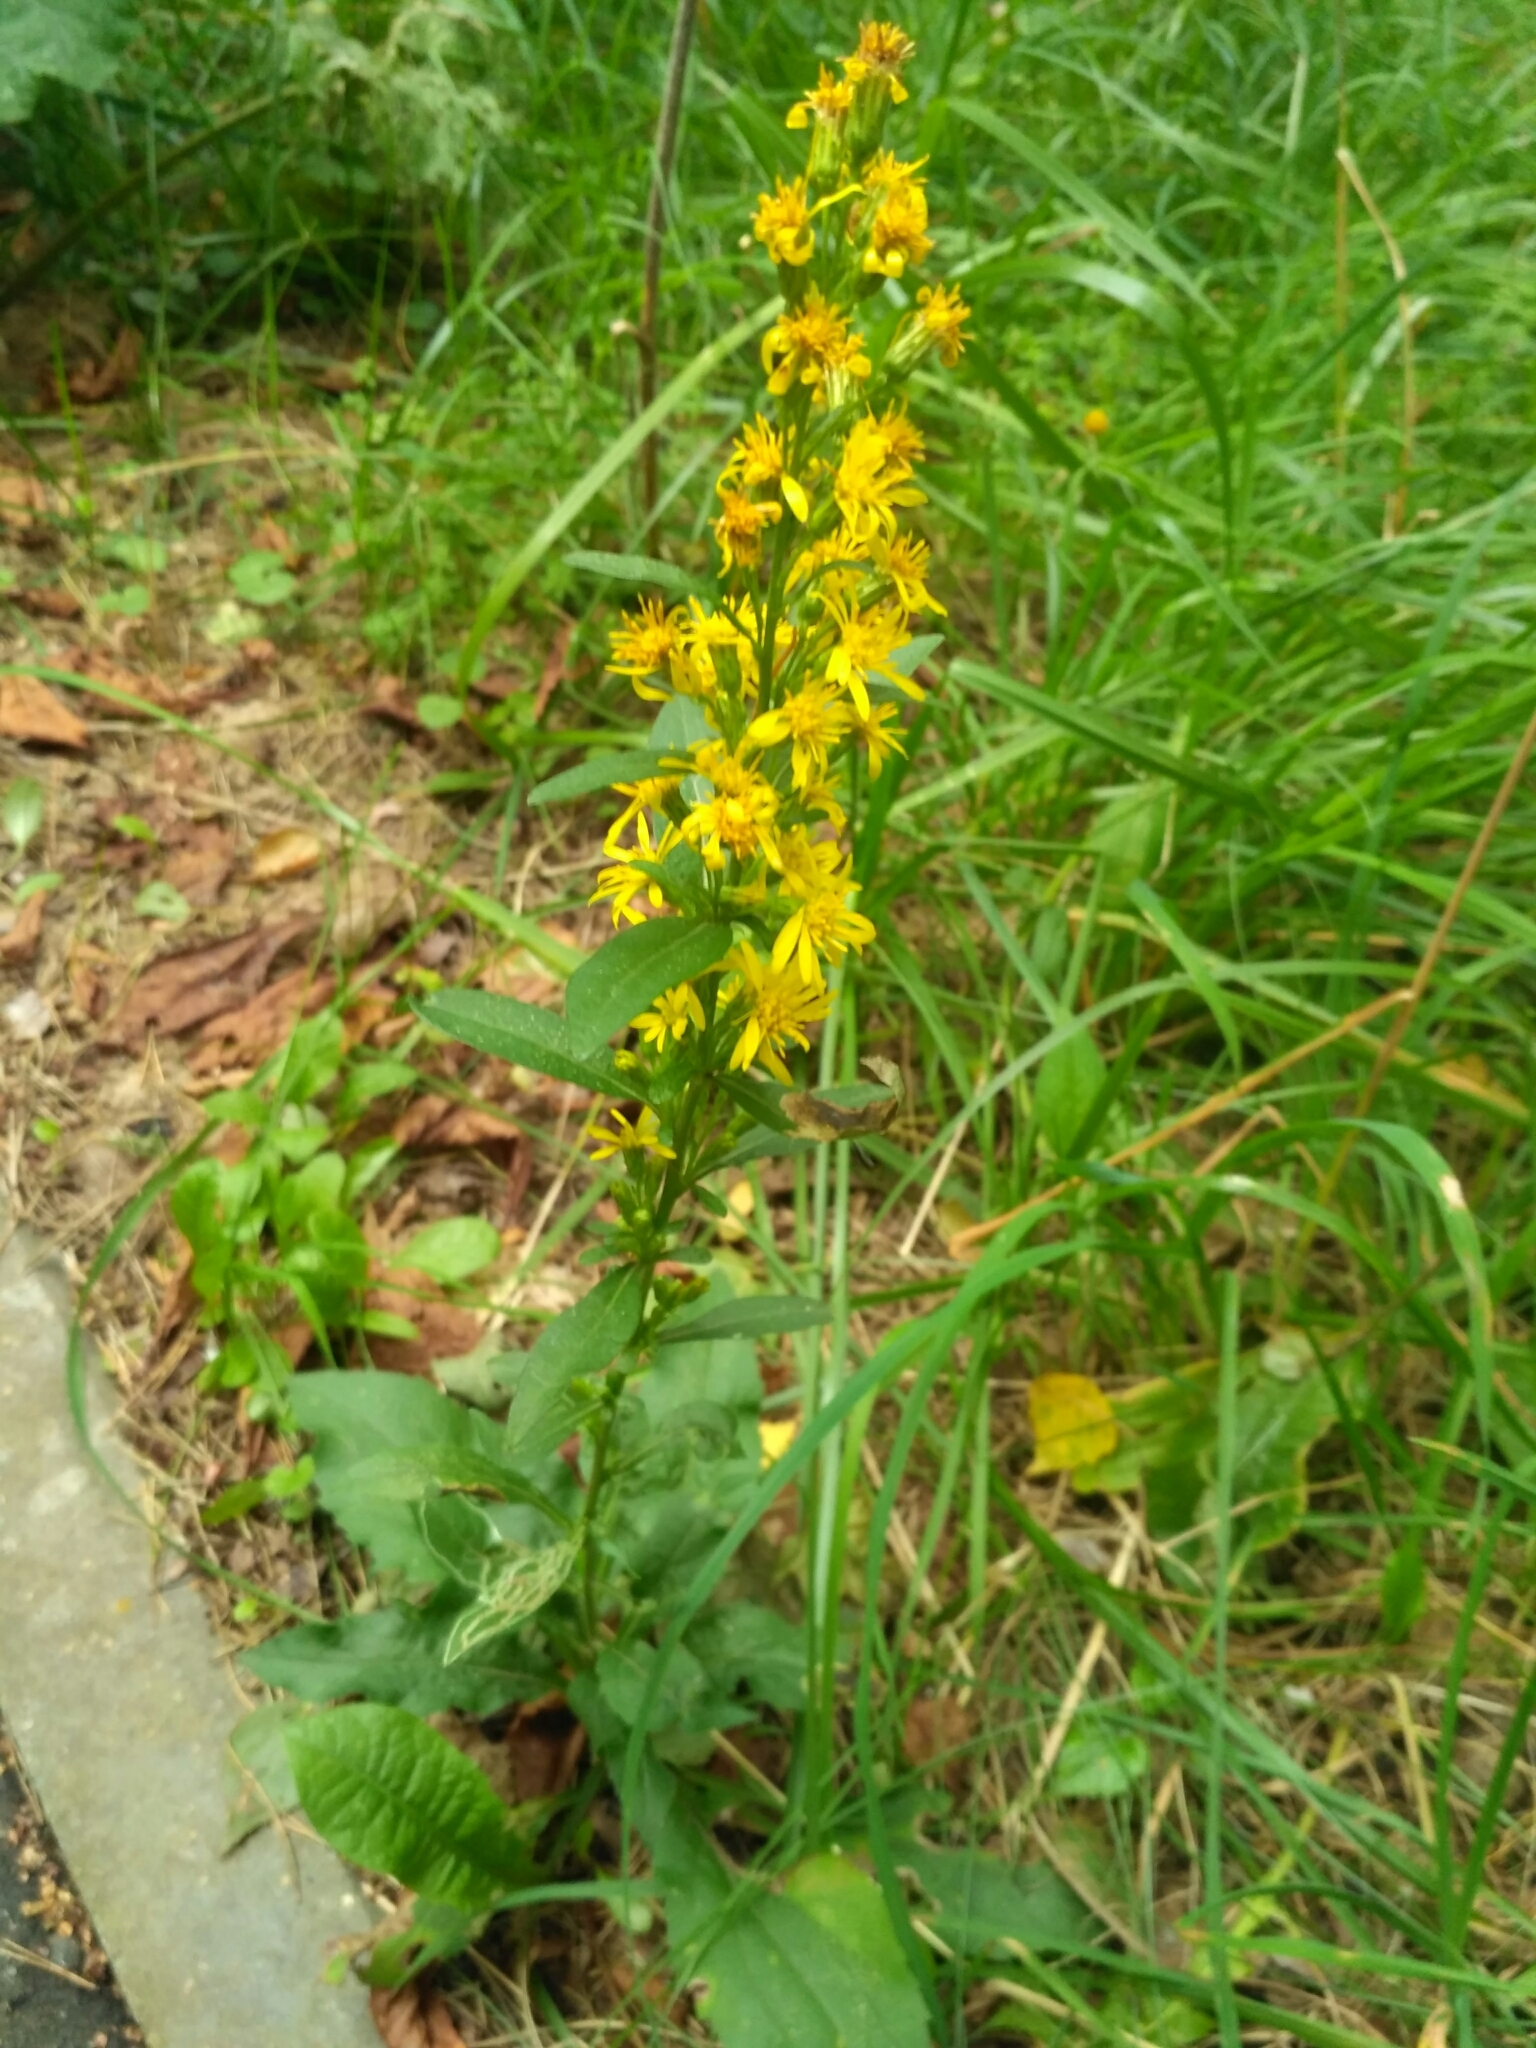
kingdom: Plantae
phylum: Tracheophyta
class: Magnoliopsida
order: Asterales
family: Asteraceae
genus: Solidago
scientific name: Solidago virgaurea
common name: Goldenrod
